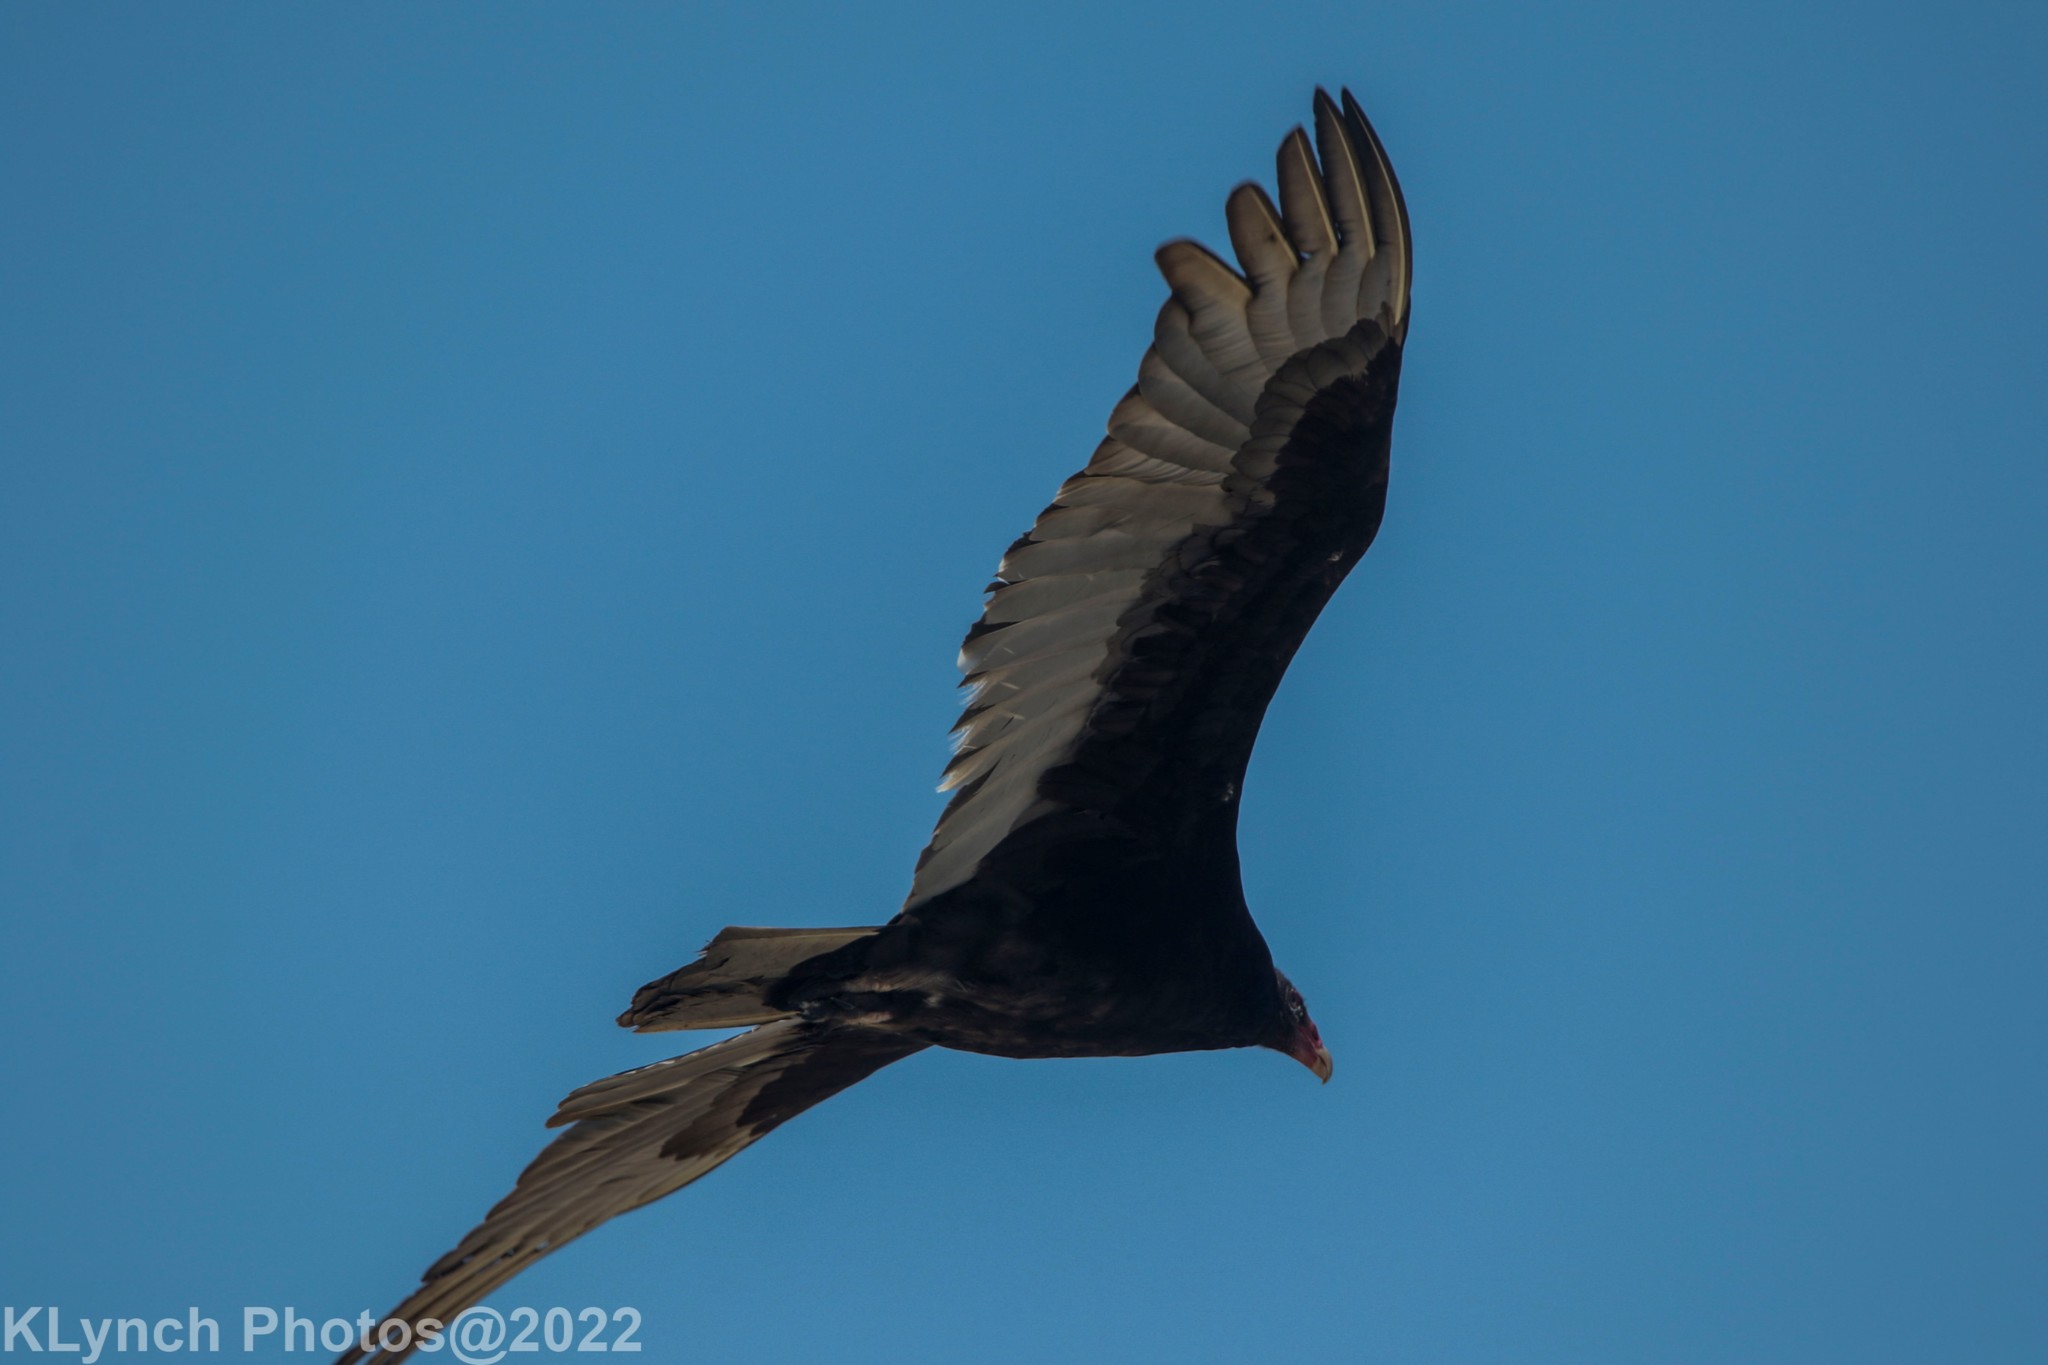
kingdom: Animalia
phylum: Chordata
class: Aves
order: Accipitriformes
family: Cathartidae
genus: Cathartes
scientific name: Cathartes aura
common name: Turkey vulture
